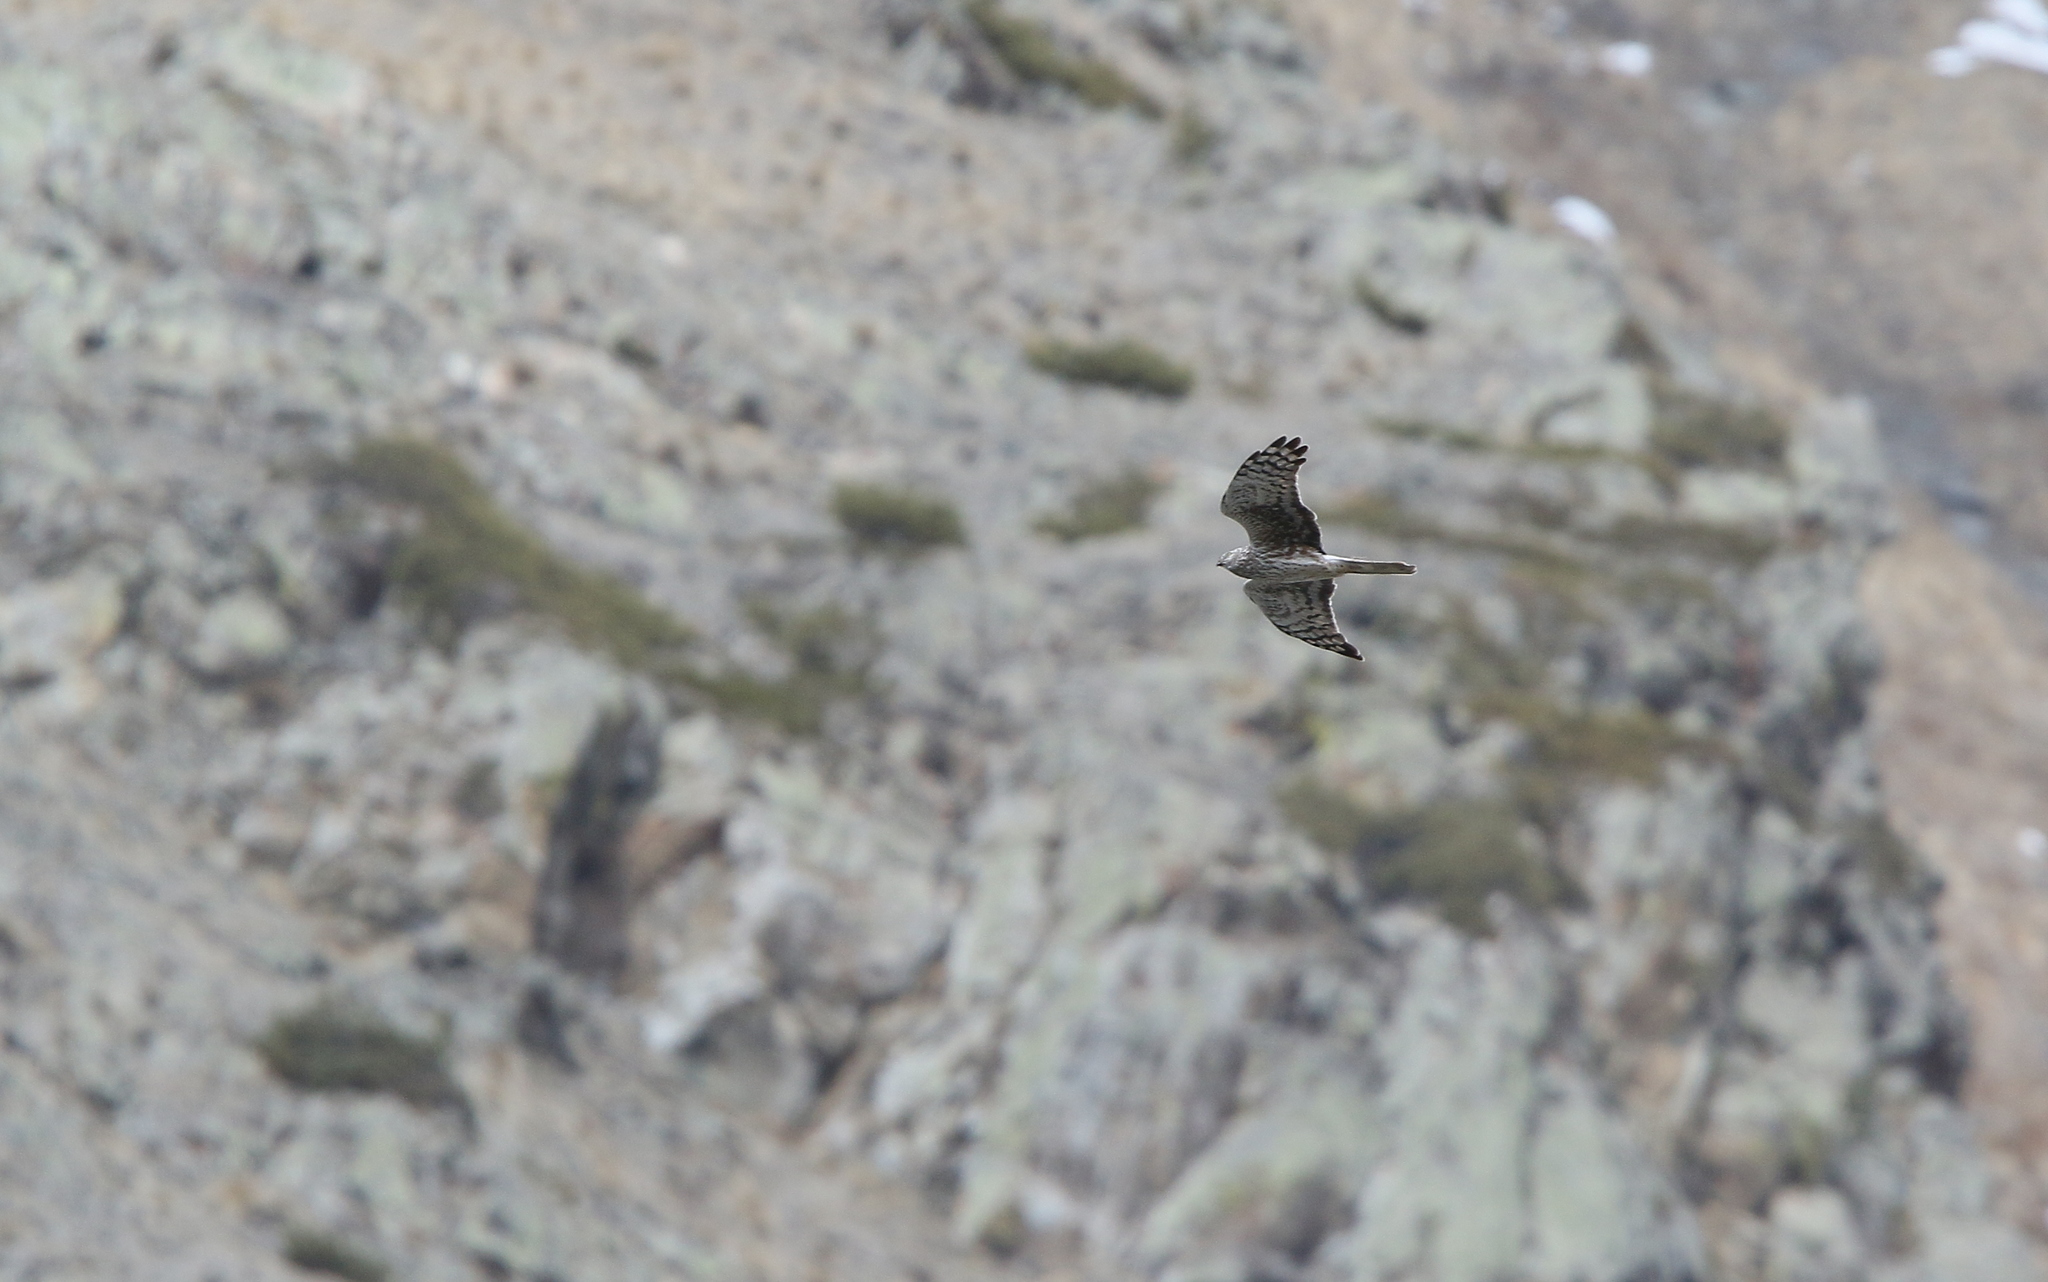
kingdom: Animalia
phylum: Chordata
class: Aves
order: Accipitriformes
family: Accipitridae
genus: Circus
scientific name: Circus cyaneus
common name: Hen harrier
